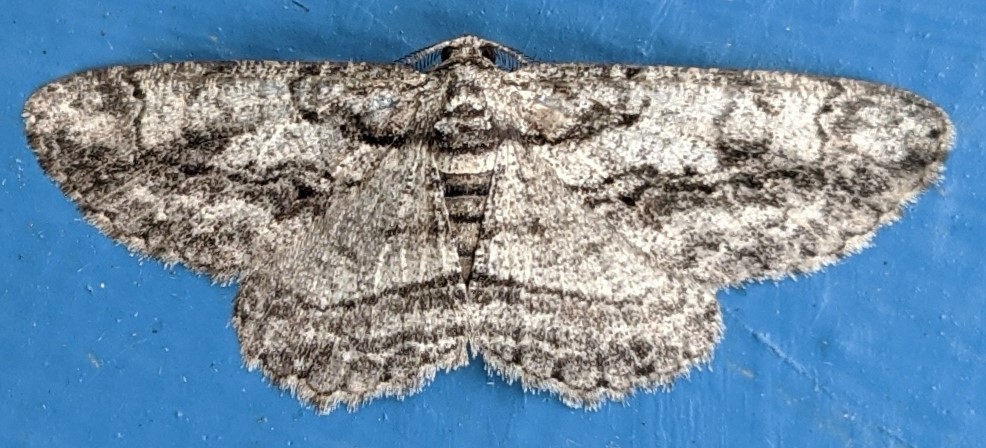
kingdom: Animalia
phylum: Arthropoda
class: Insecta
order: Lepidoptera
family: Geometridae
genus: Anavitrinella
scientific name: Anavitrinella pampinaria
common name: Common gray
